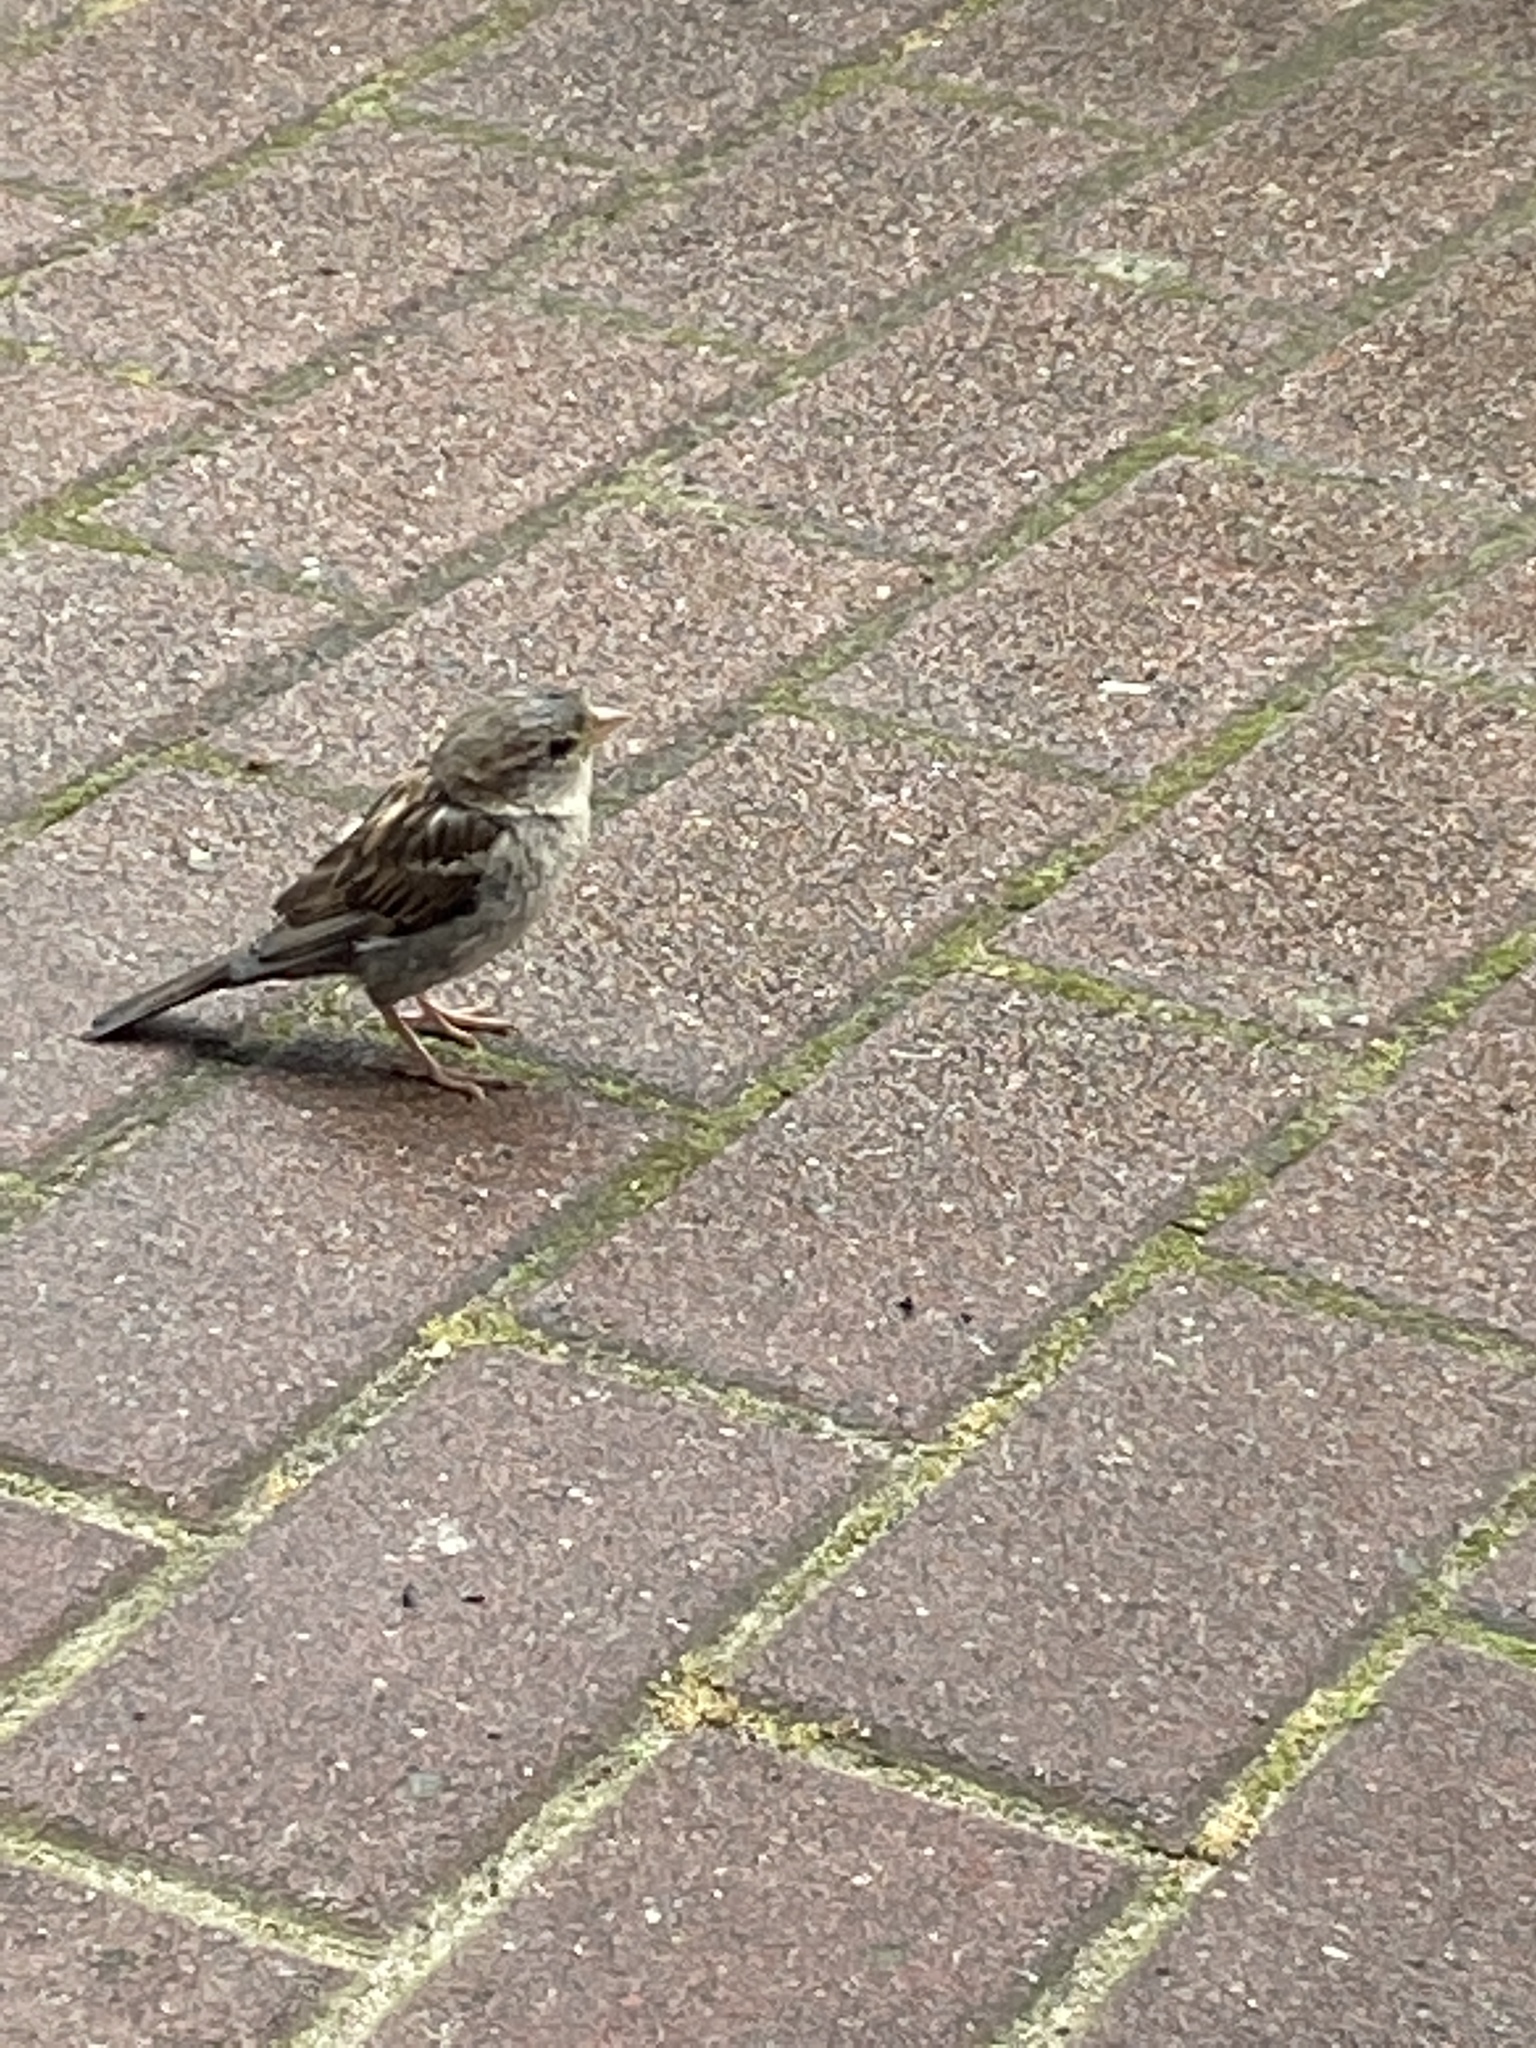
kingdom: Animalia
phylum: Chordata
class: Aves
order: Passeriformes
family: Passeridae
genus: Passer
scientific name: Passer domesticus
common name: House sparrow
